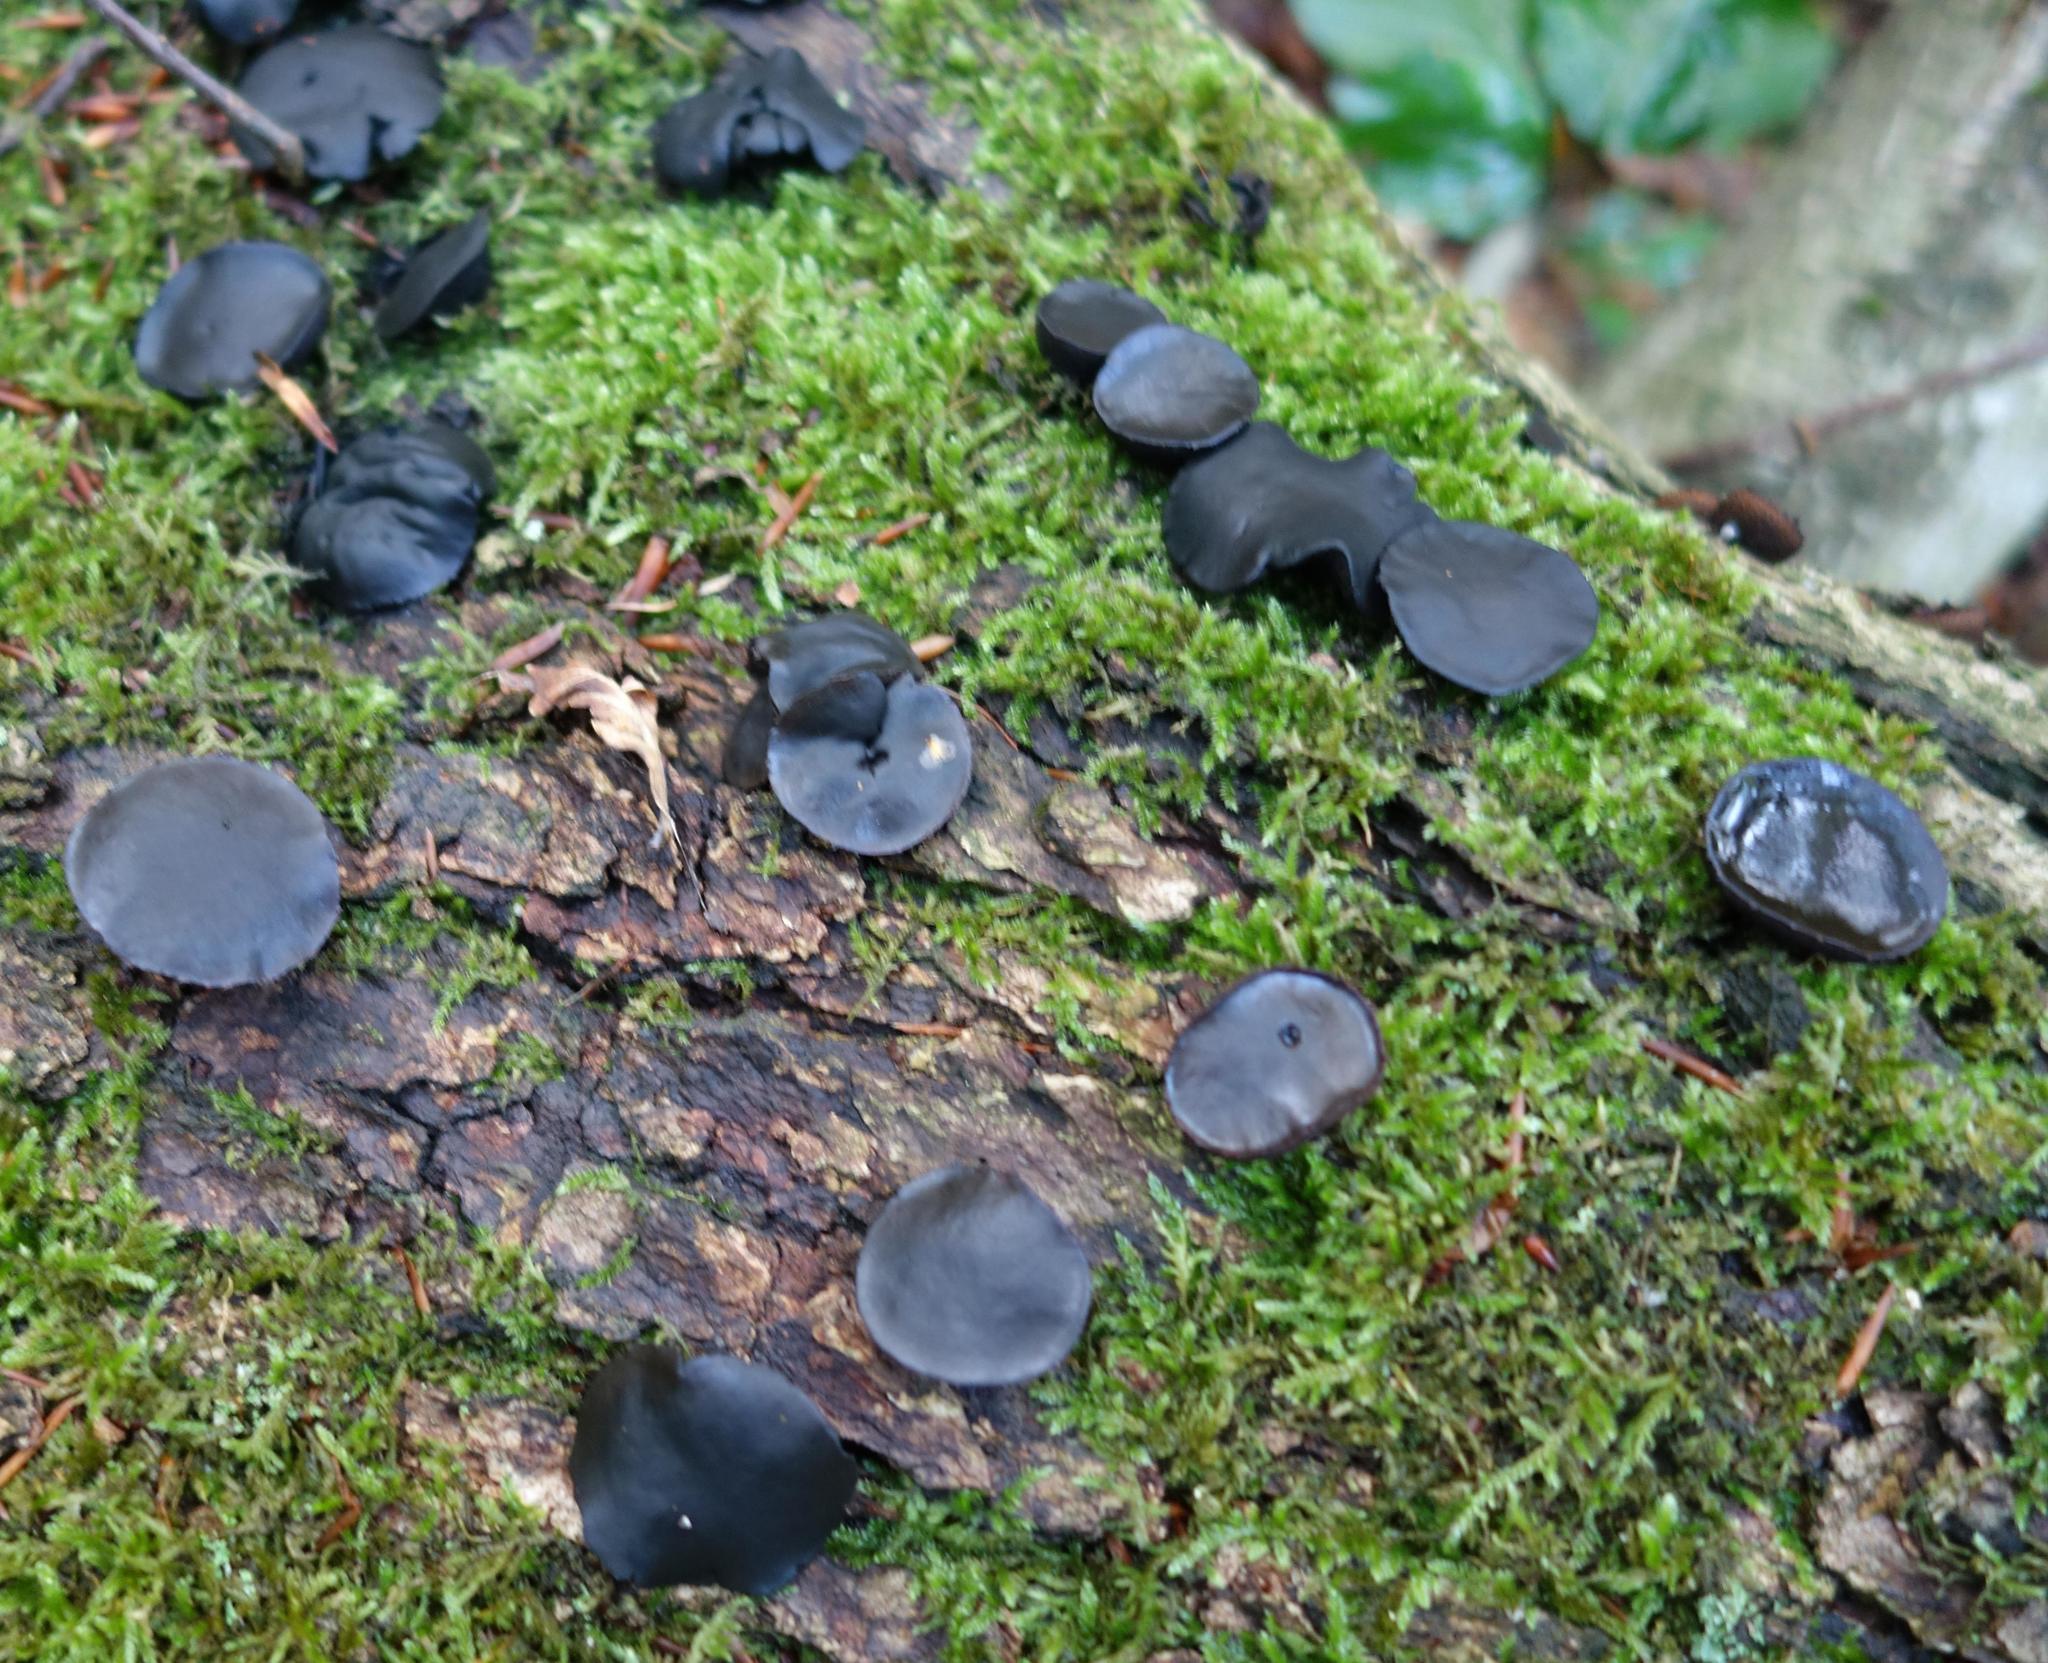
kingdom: Fungi
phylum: Ascomycota
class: Leotiomycetes
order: Phacidiales
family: Phacidiaceae
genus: Bulgaria
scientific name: Bulgaria inquinans
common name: Black bulgar
